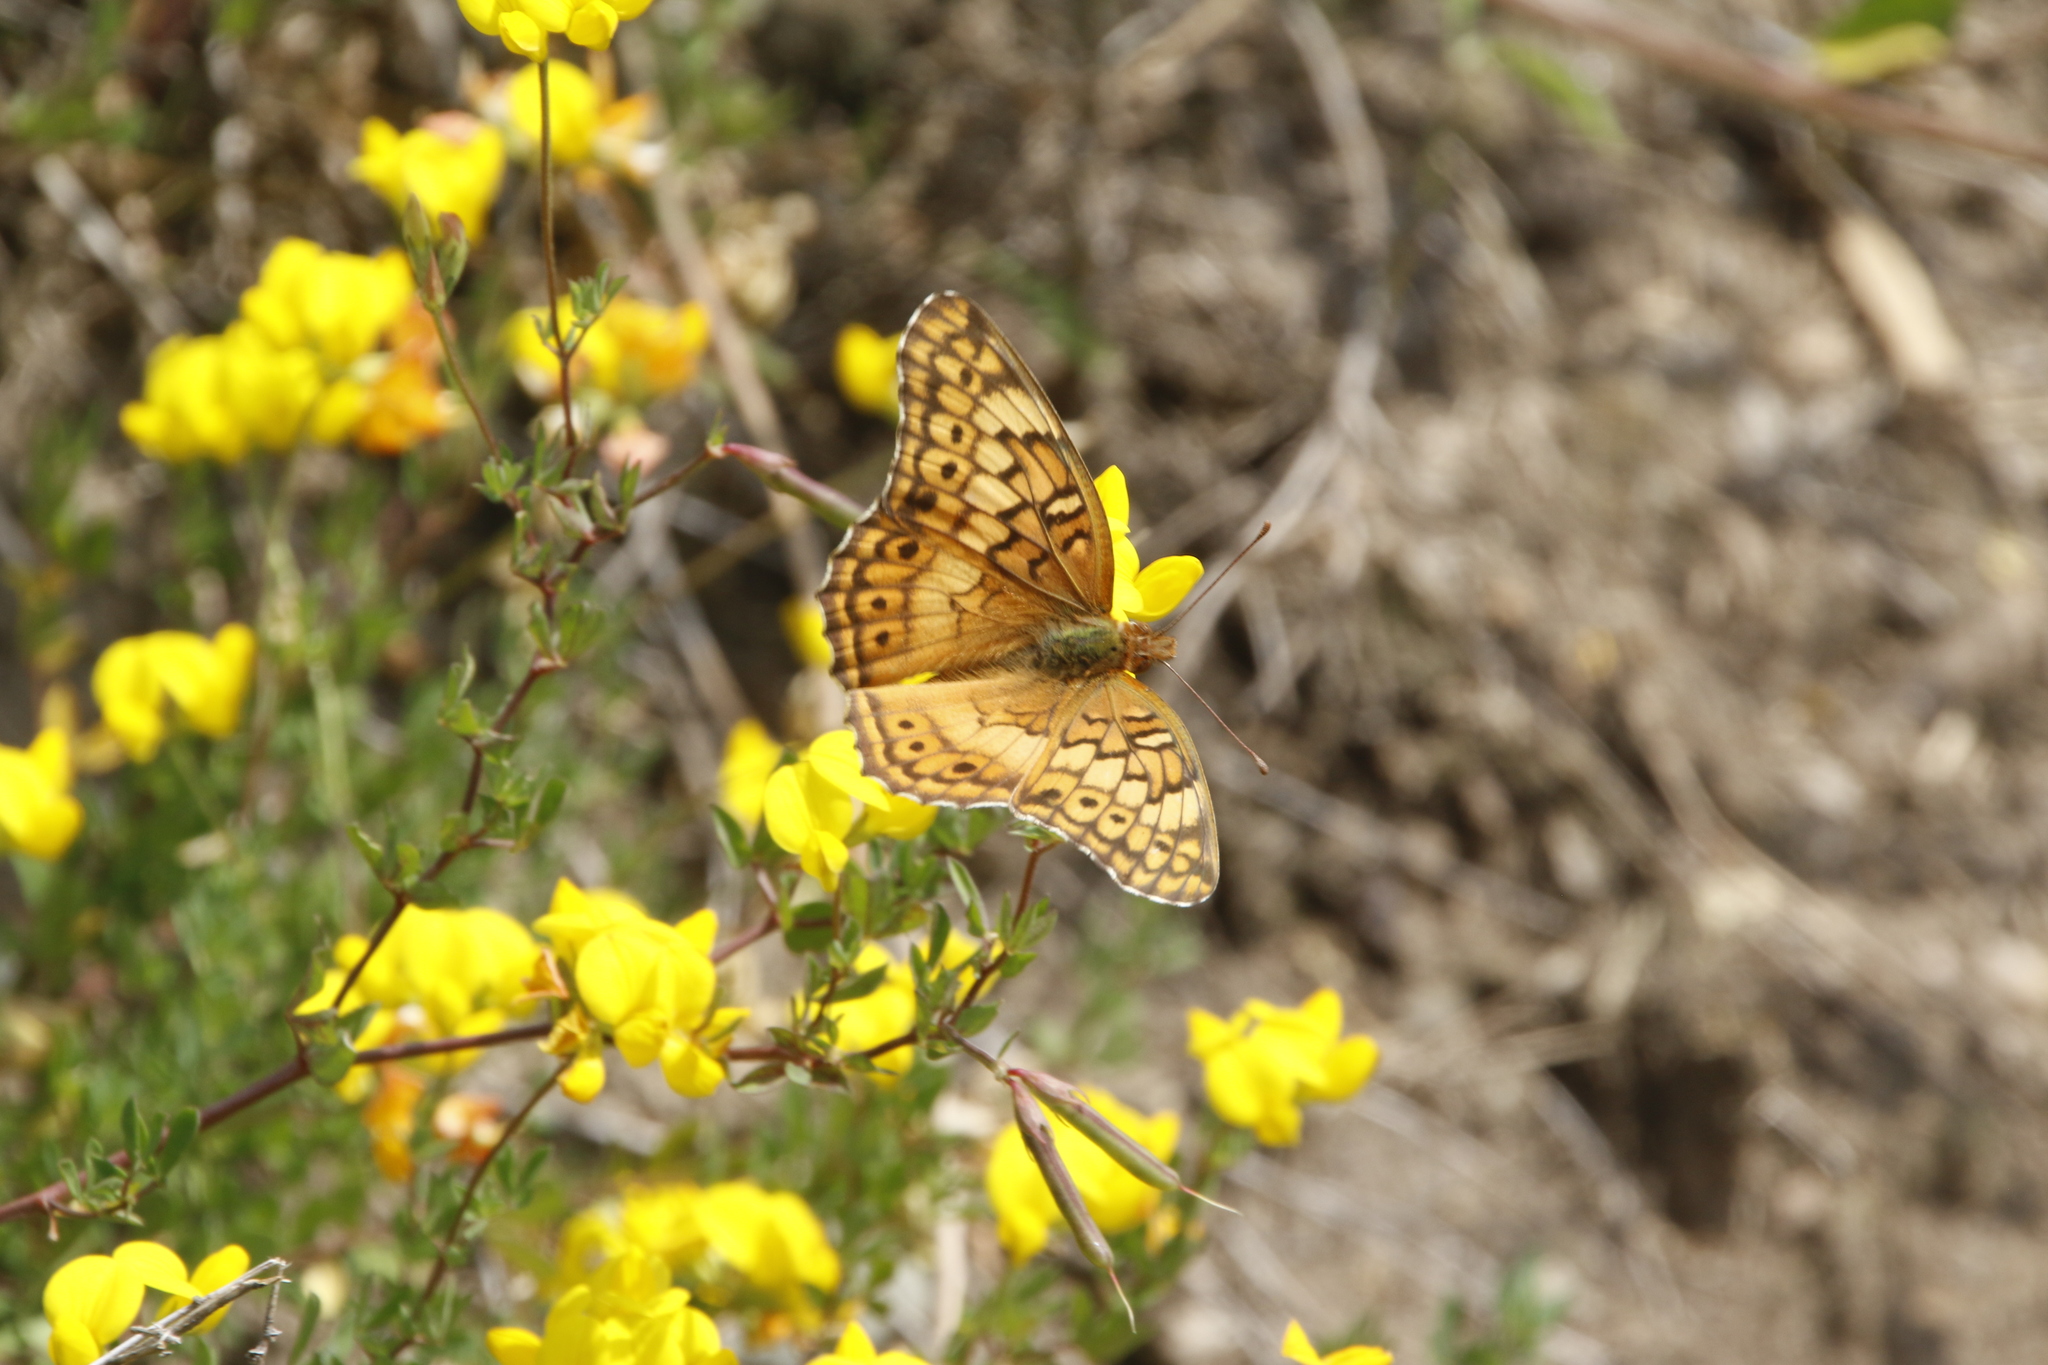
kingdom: Animalia
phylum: Arthropoda
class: Insecta
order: Lepidoptera
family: Nymphalidae
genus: Euptoieta
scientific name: Euptoieta claudia
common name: Variegated fritillary
